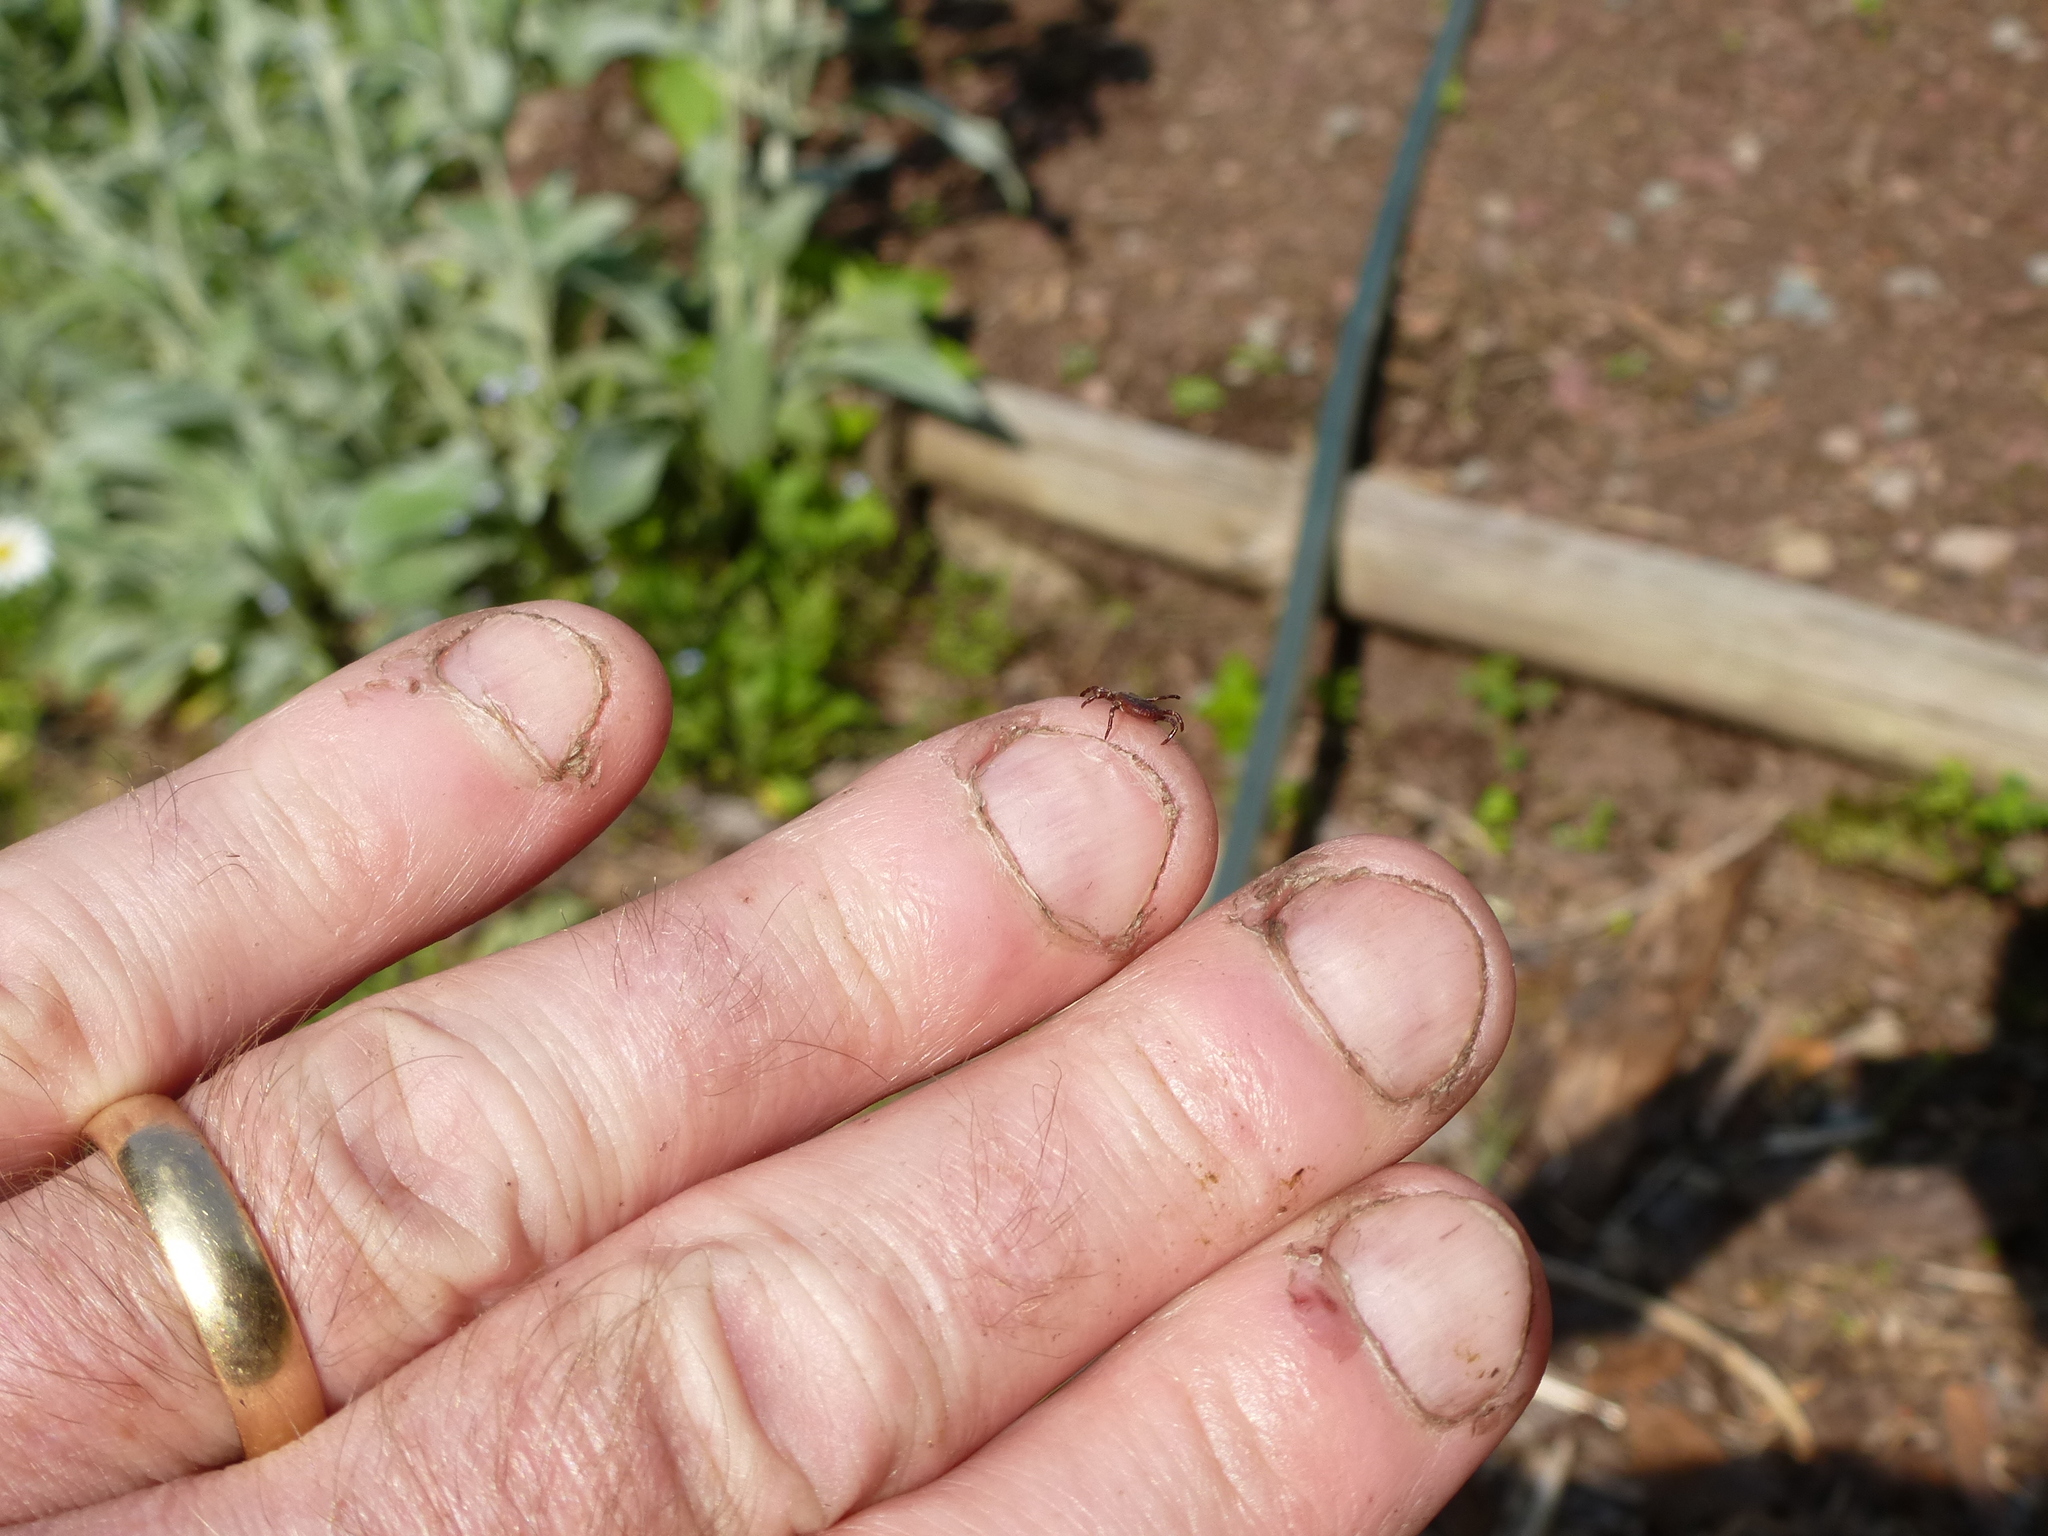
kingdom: Animalia
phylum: Arthropoda
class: Arachnida
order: Ixodida
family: Ixodidae
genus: Dermacentor
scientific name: Dermacentor variabilis
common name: American dog tick
